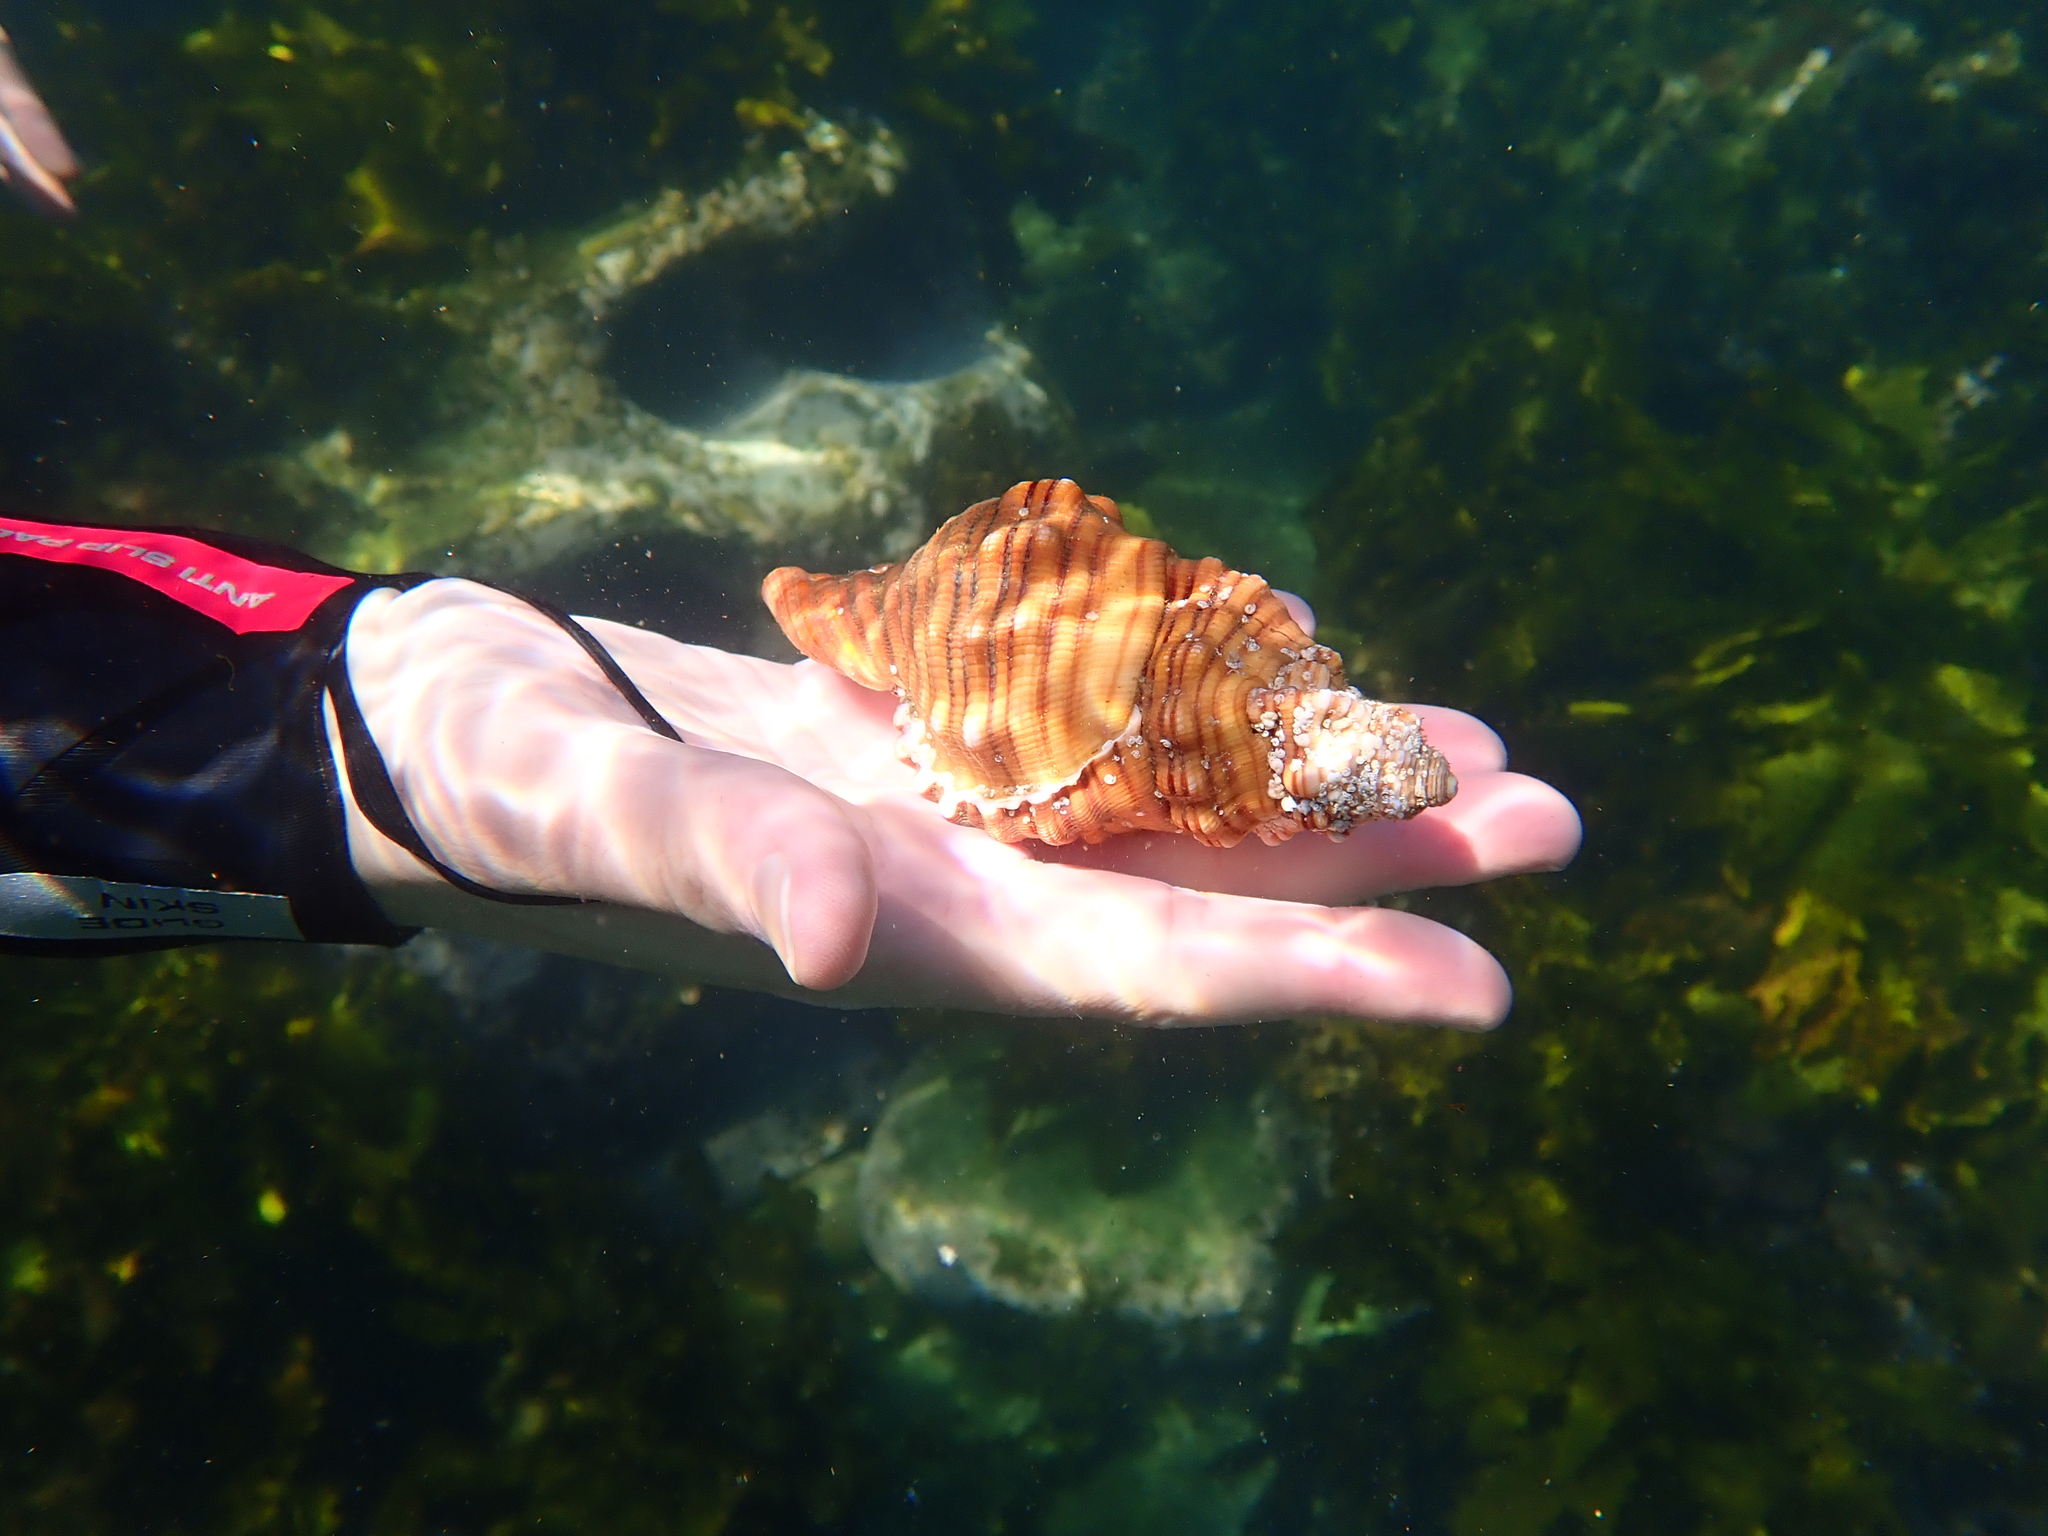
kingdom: Animalia
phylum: Mollusca
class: Gastropoda
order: Littorinimorpha
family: Cymatiidae
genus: Cabestana
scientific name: Cabestana spengleri
